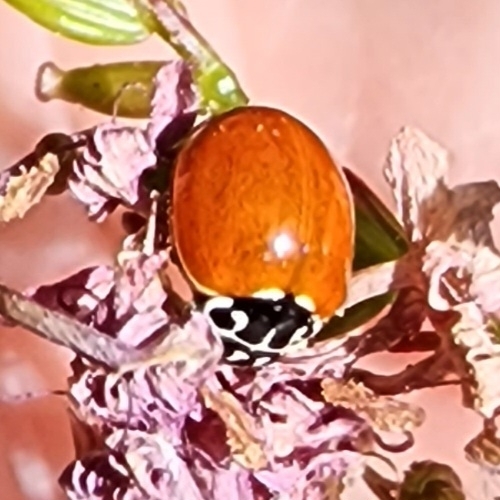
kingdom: Animalia
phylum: Arthropoda
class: Insecta
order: Coleoptera
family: Coccinellidae
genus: Cycloneda
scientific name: Cycloneda polita
